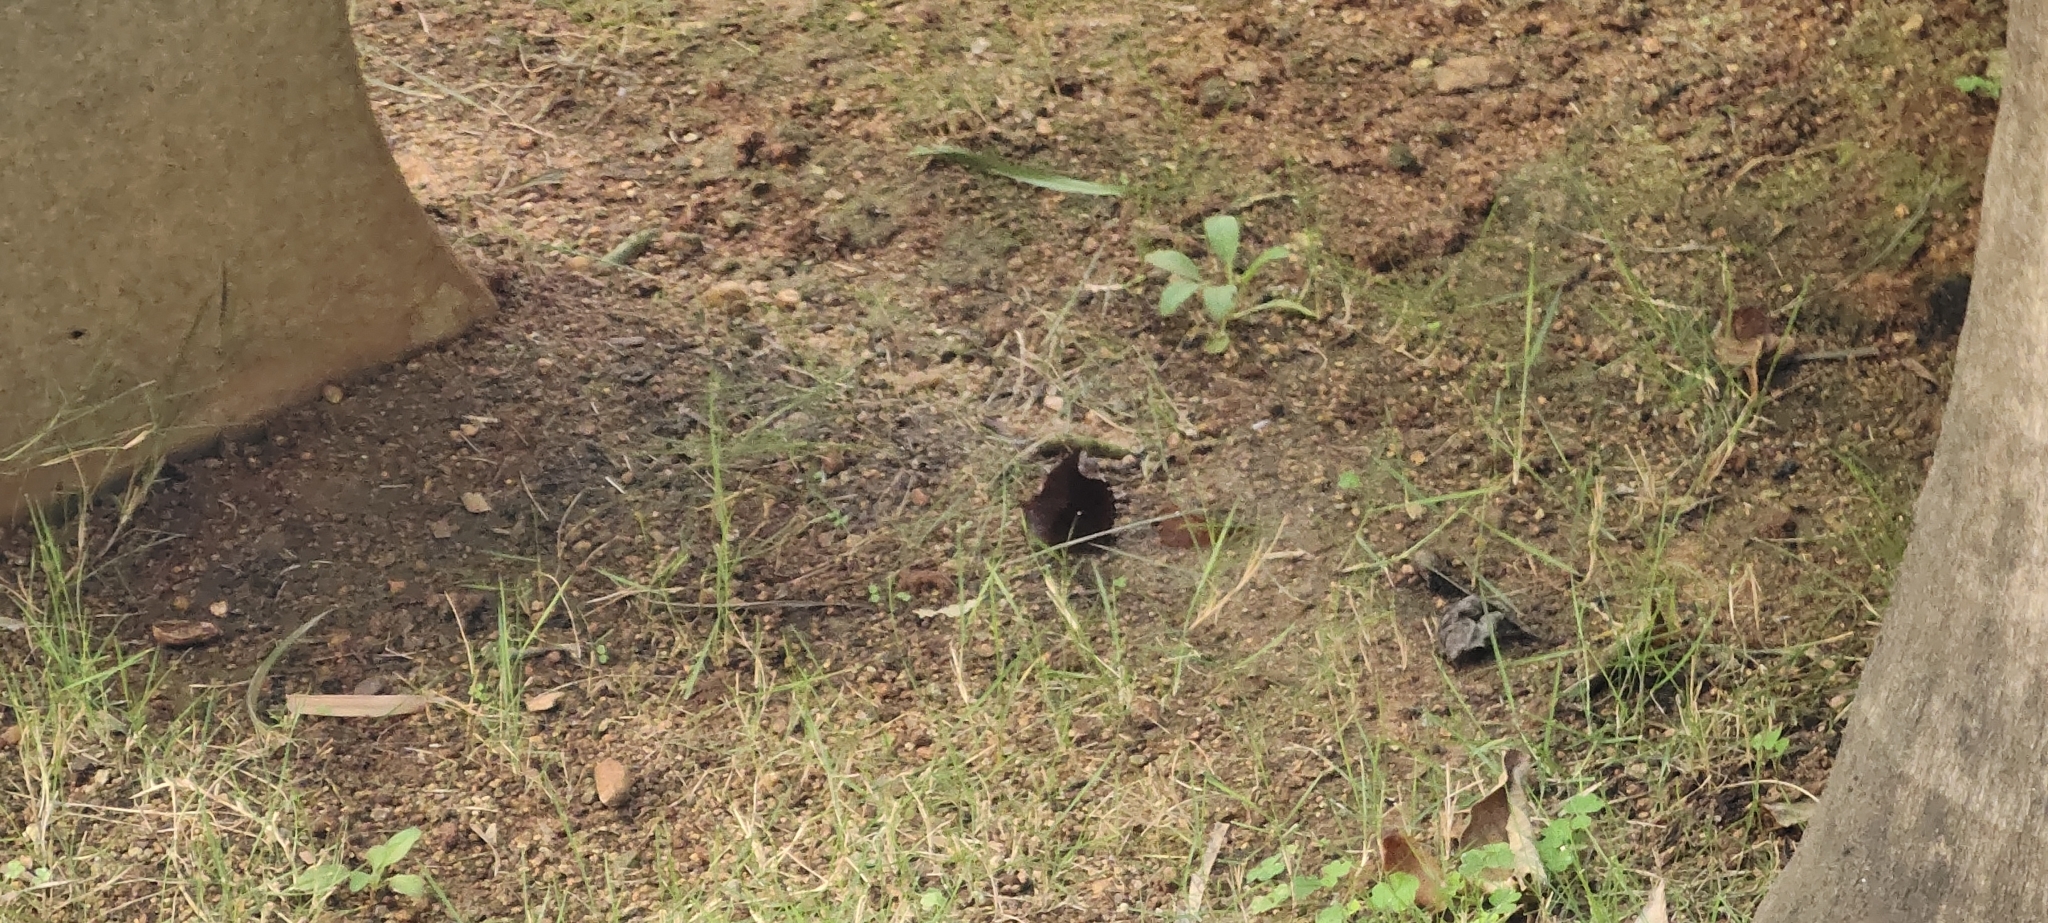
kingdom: Animalia
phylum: Arthropoda
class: Insecta
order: Lepidoptera
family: Nymphalidae
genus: Elymnias
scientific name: Elymnias hypermnestra
